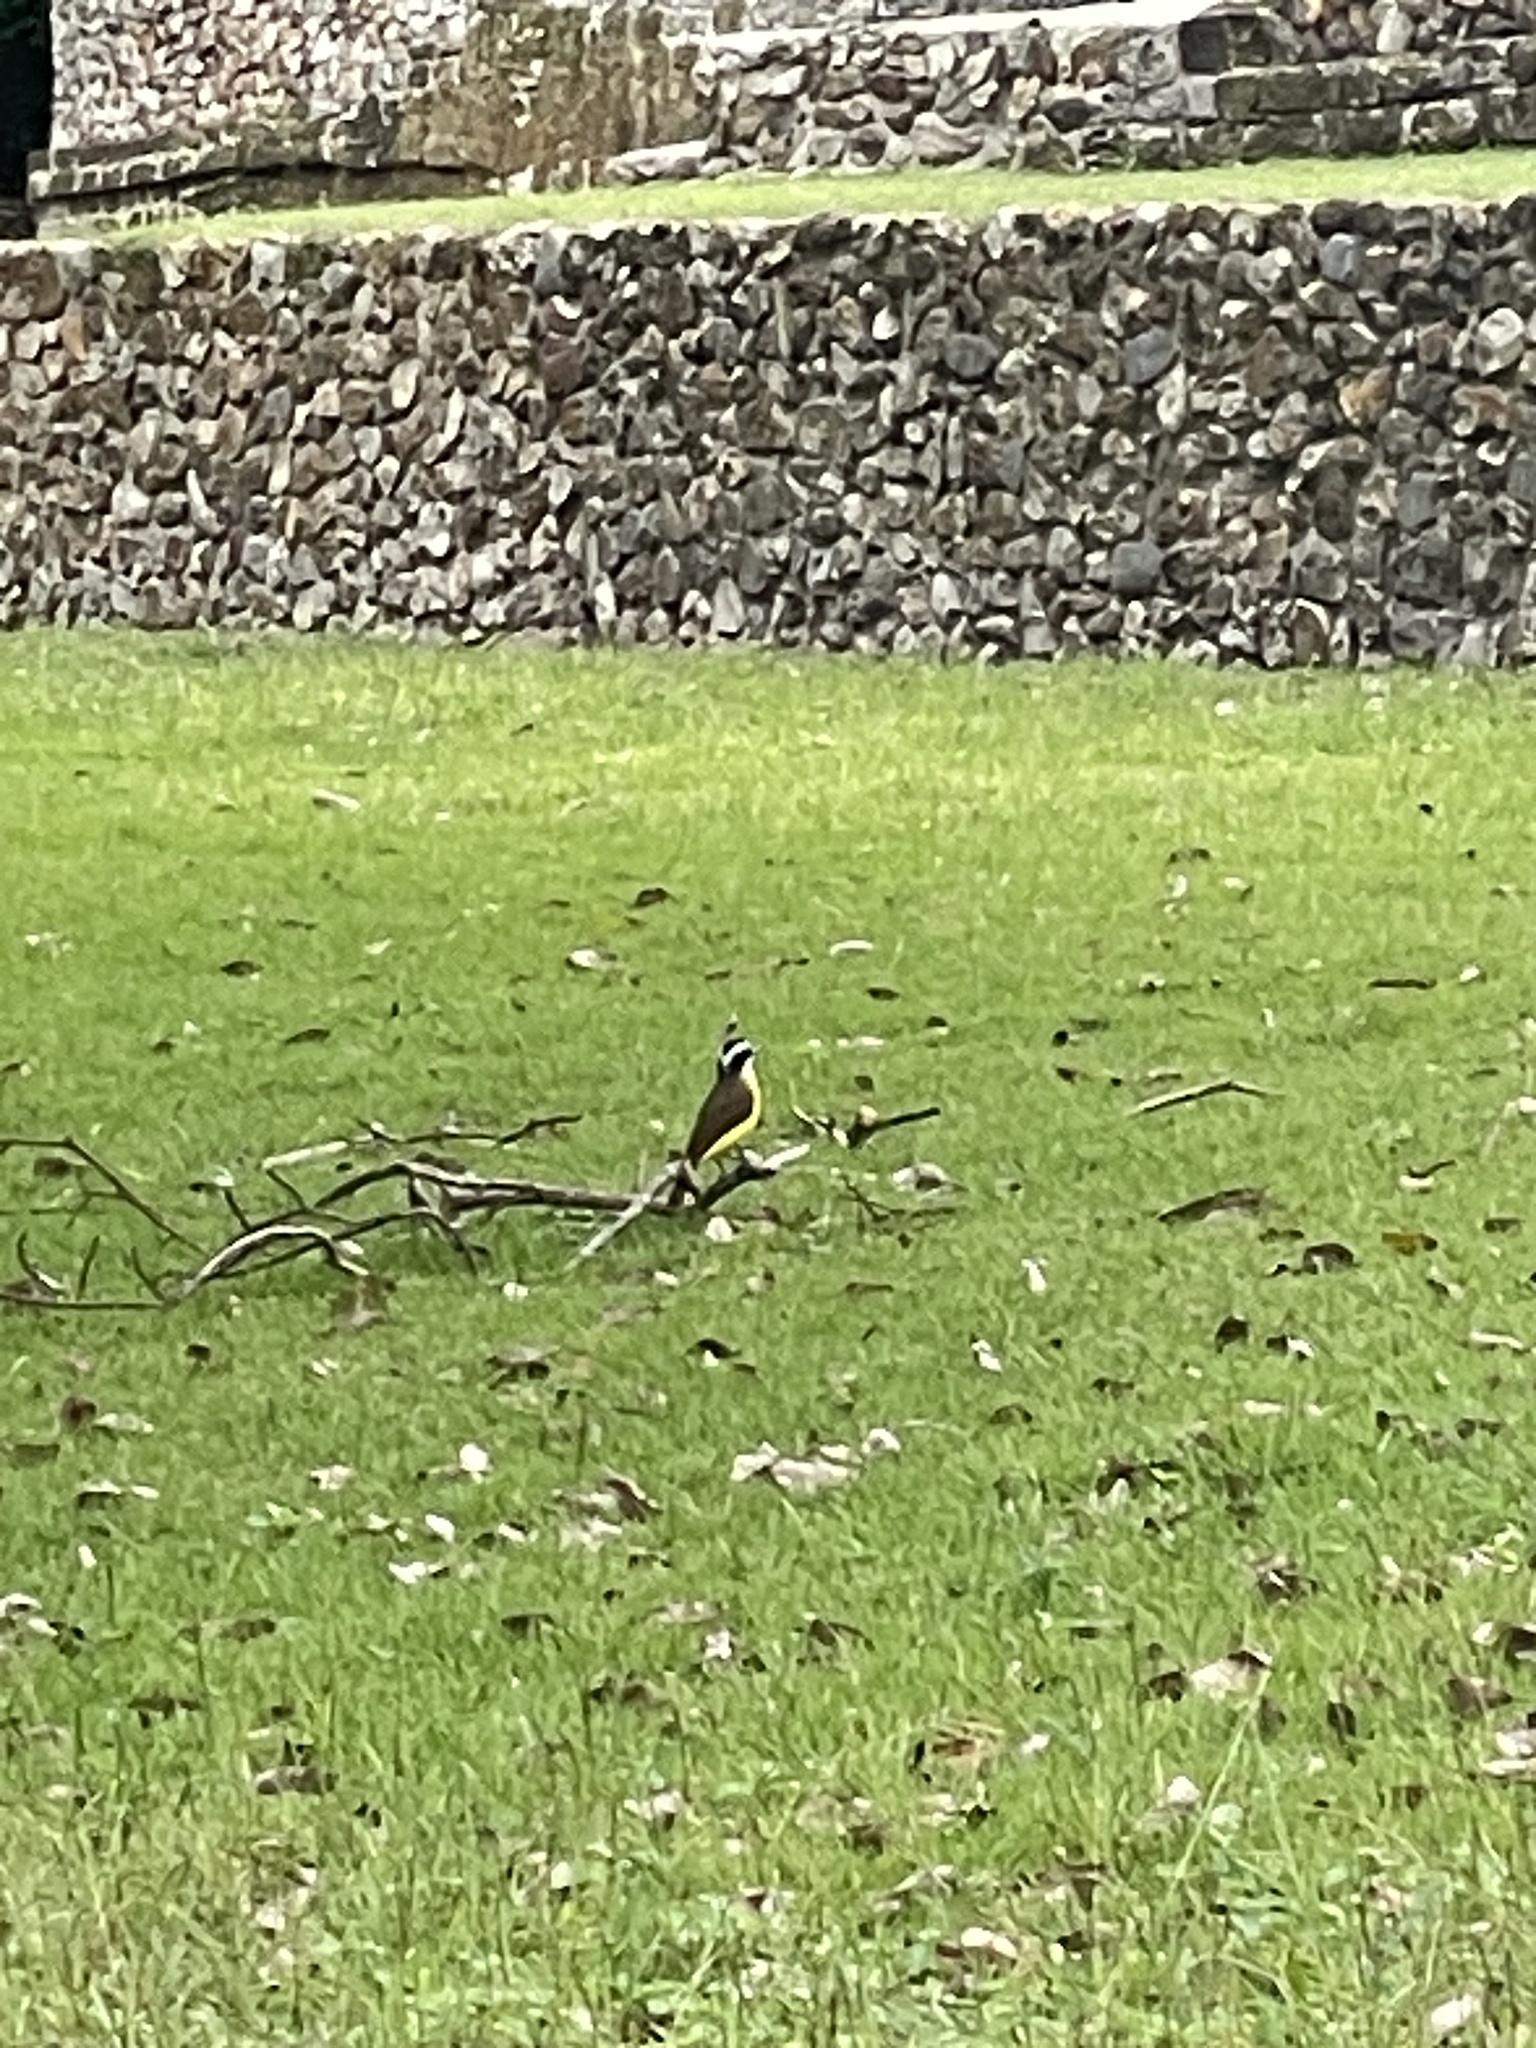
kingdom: Animalia
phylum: Chordata
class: Aves
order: Passeriformes
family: Tyrannidae
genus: Pitangus
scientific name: Pitangus sulphuratus
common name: Great kiskadee
